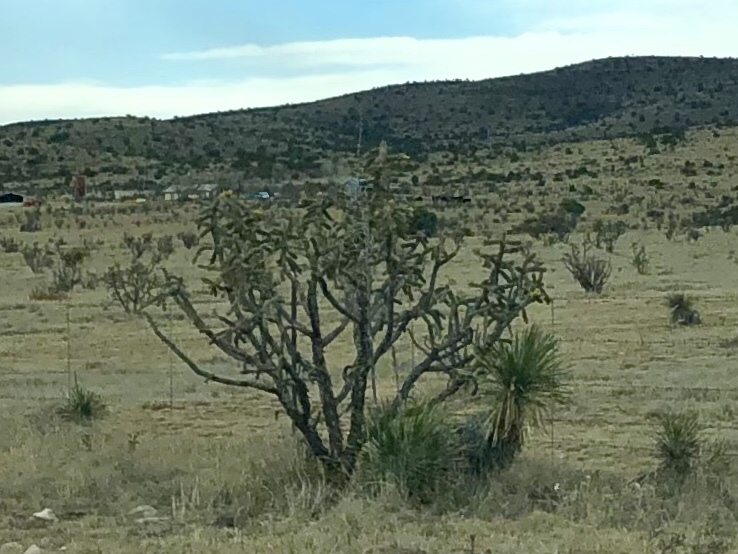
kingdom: Plantae
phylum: Tracheophyta
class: Magnoliopsida
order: Caryophyllales
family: Cactaceae
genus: Cylindropuntia
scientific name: Cylindropuntia imbricata
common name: Candelabrum cactus
